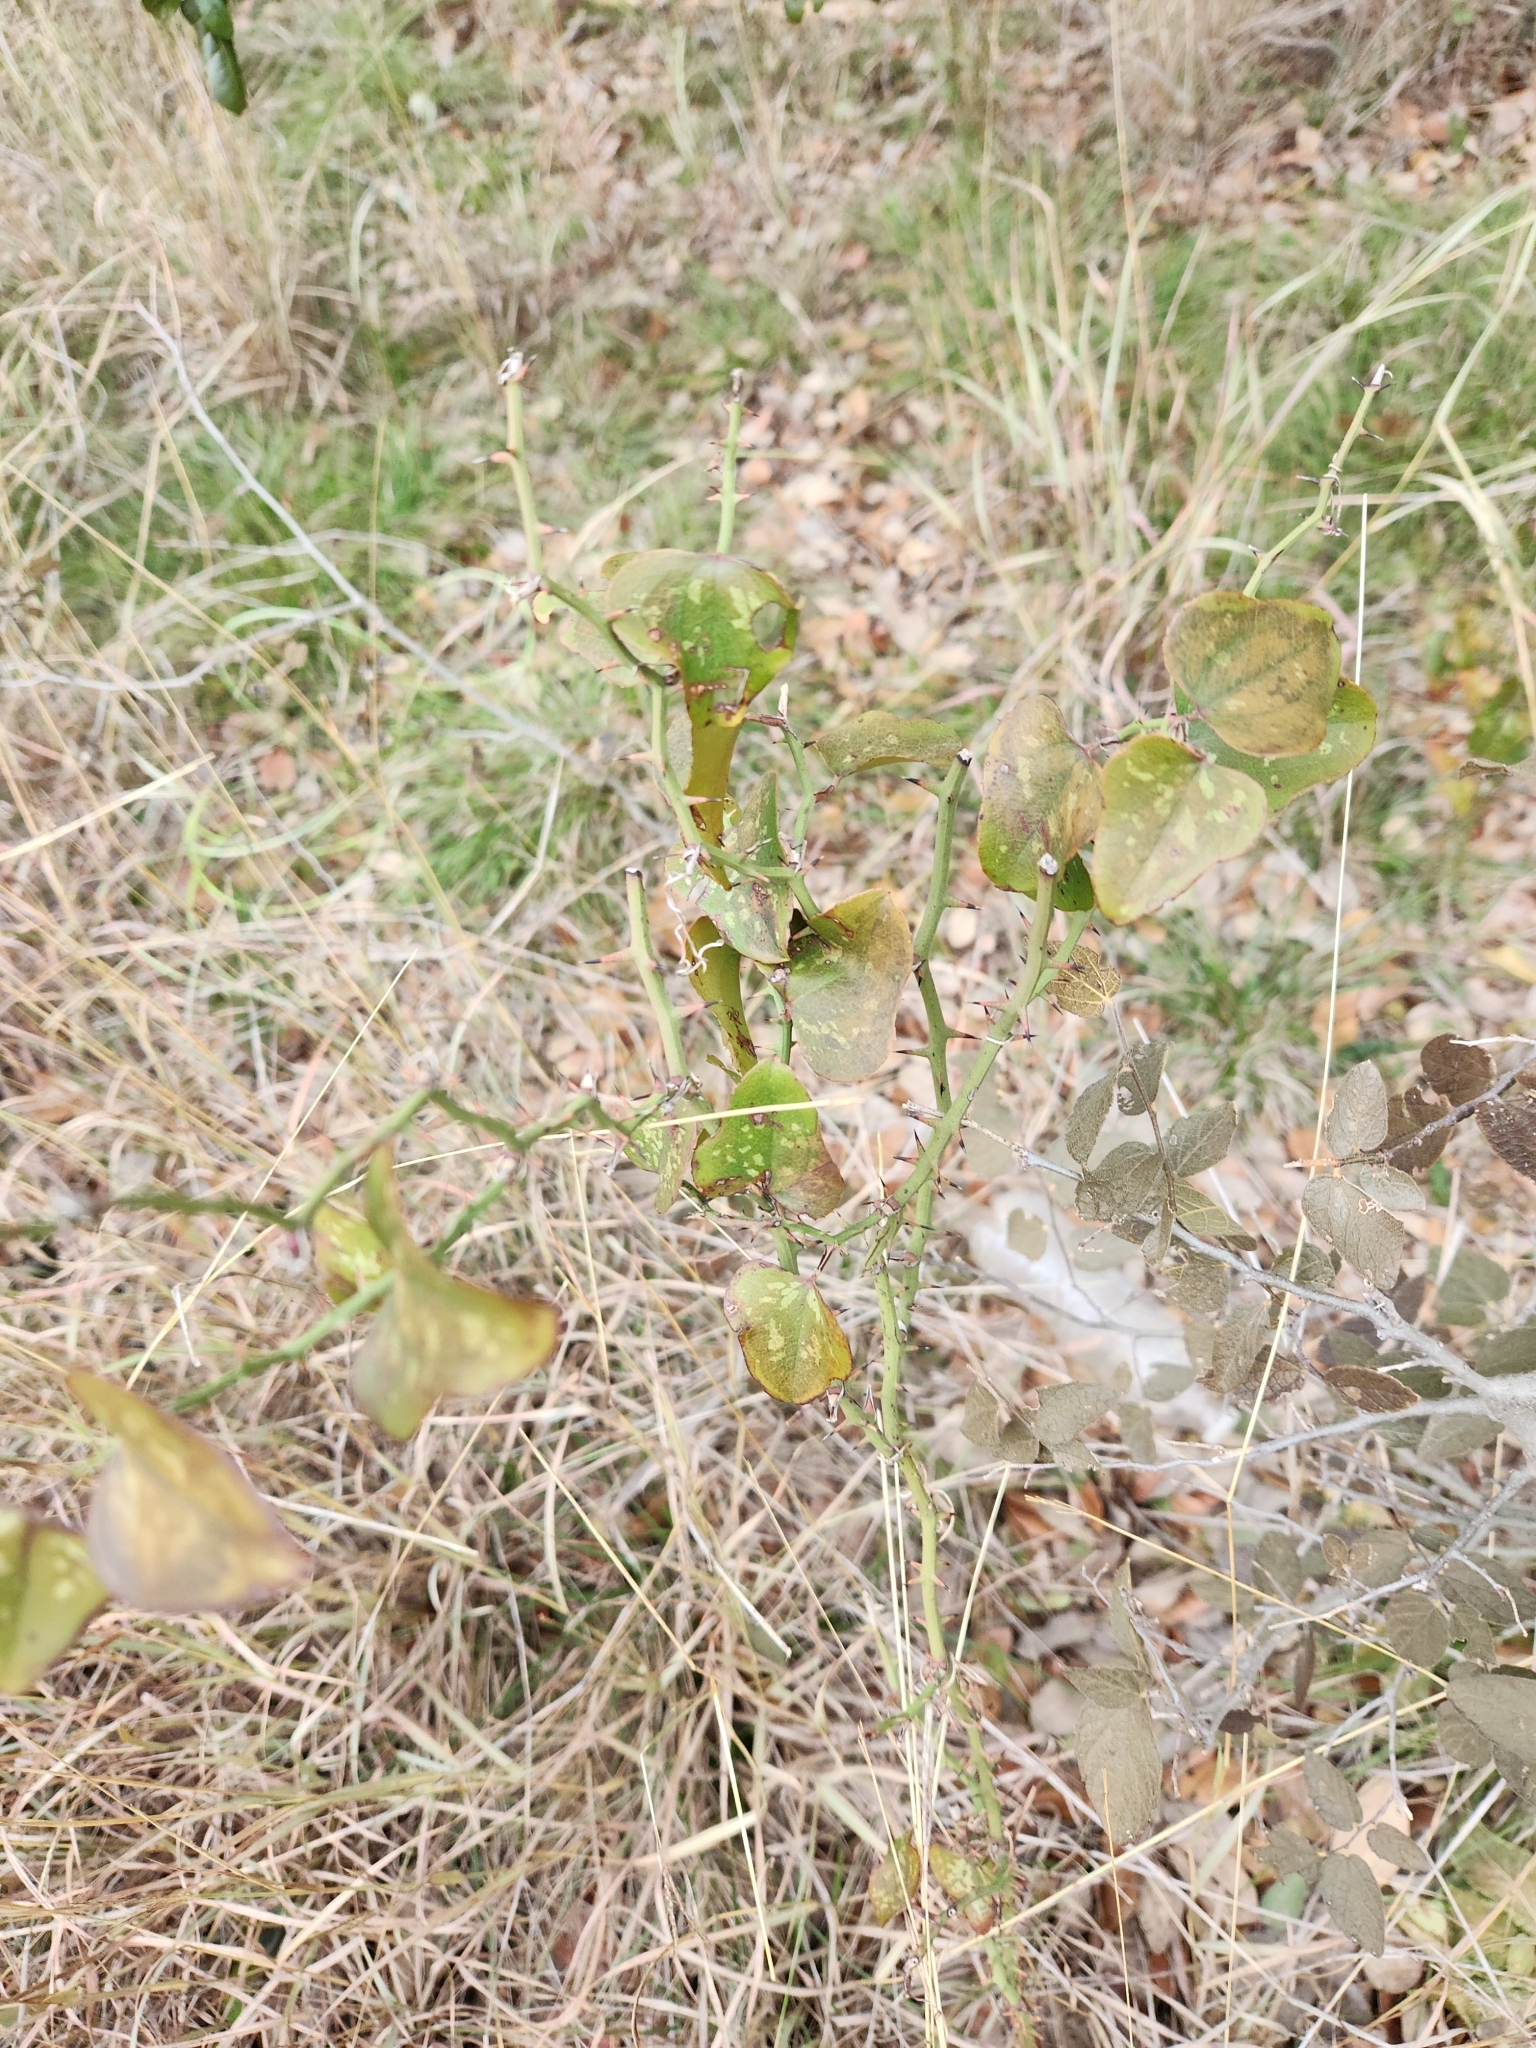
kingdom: Plantae
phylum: Tracheophyta
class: Liliopsida
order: Liliales
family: Smilacaceae
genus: Smilax
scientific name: Smilax bona-nox
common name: Catbrier
